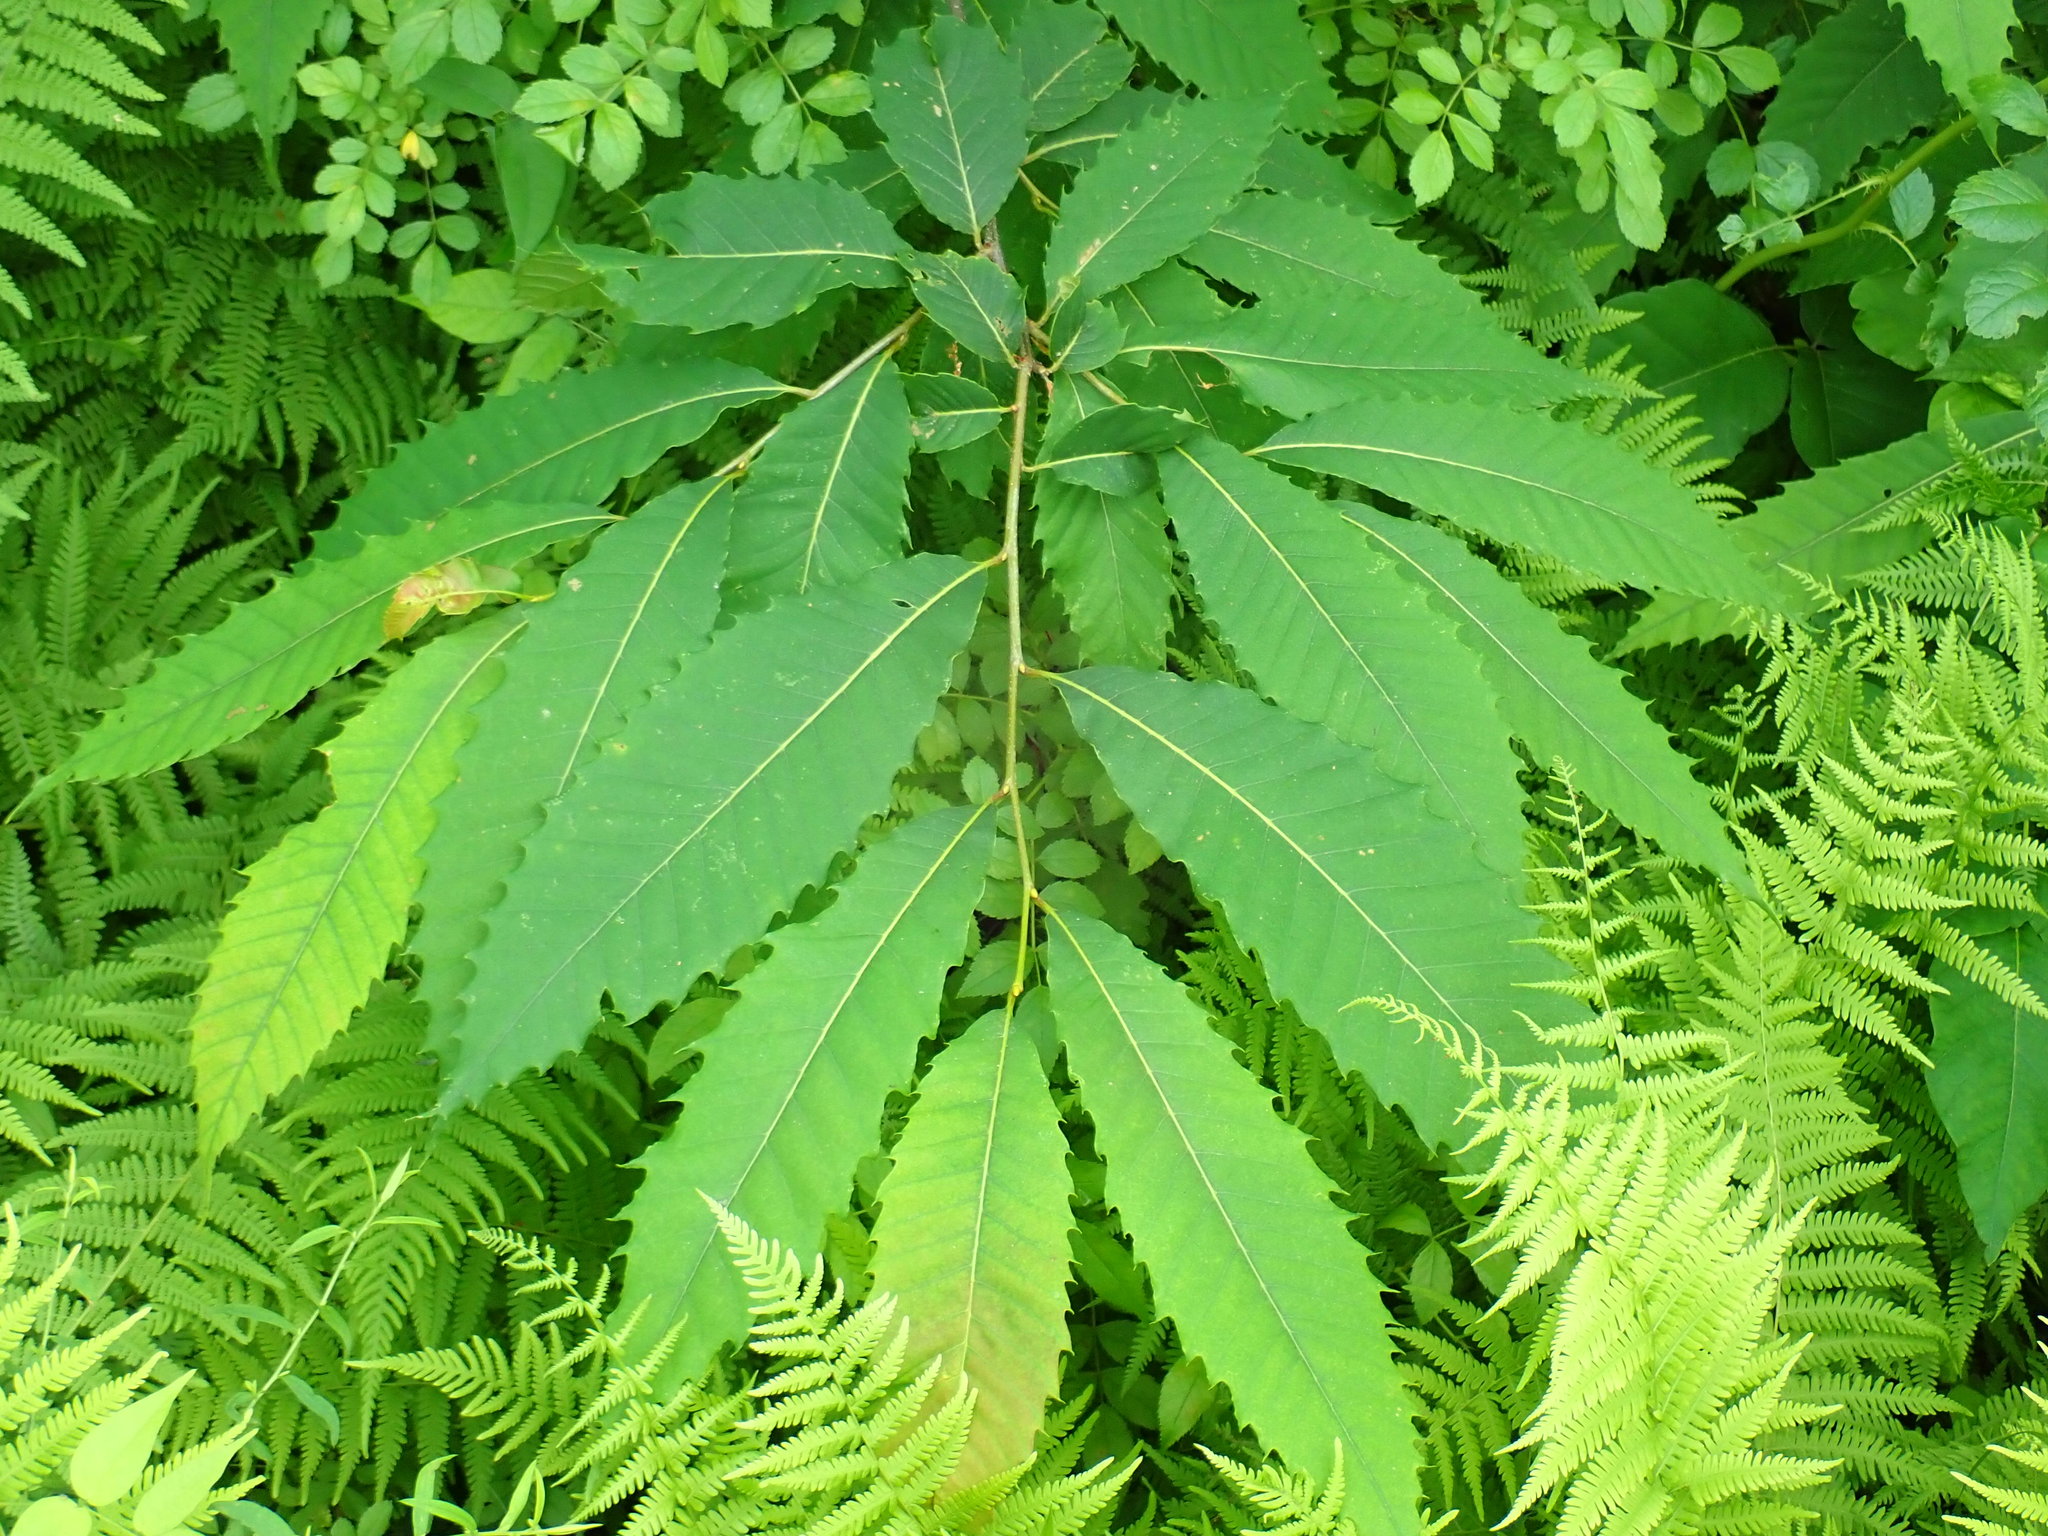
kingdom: Plantae
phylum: Tracheophyta
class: Magnoliopsida
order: Fagales
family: Fagaceae
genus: Castanea
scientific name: Castanea dentata
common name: American chestnut
